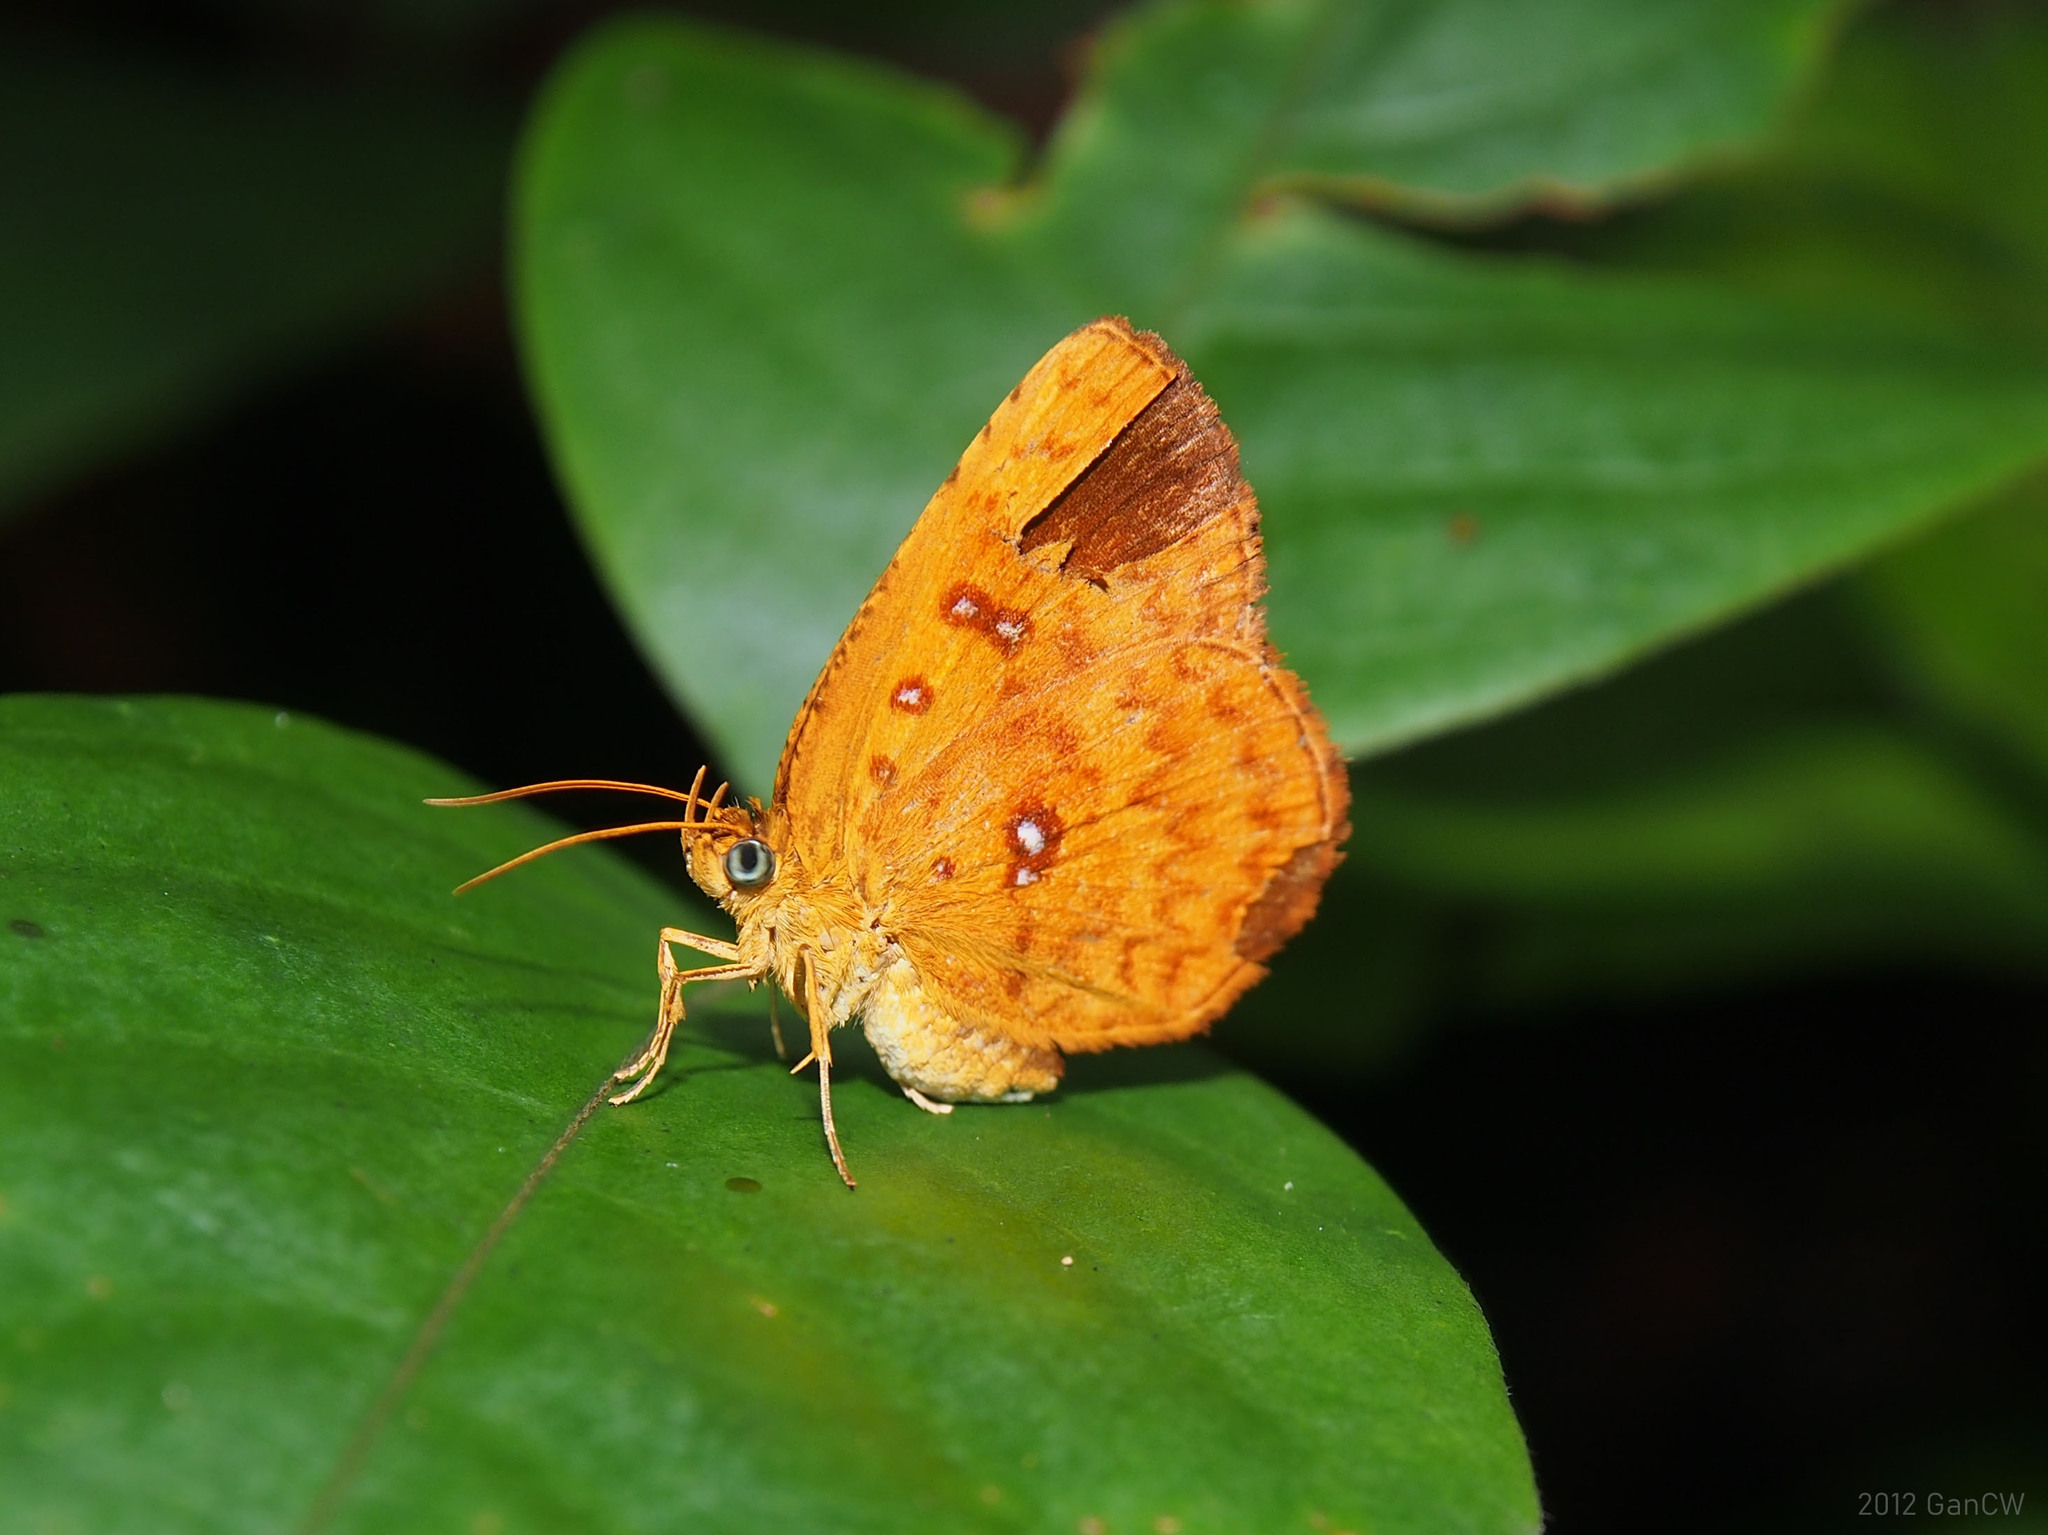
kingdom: Animalia
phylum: Arthropoda
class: Insecta
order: Lepidoptera
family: Callidulidae
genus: Tetragonus
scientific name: Tetragonus lycaenoides
